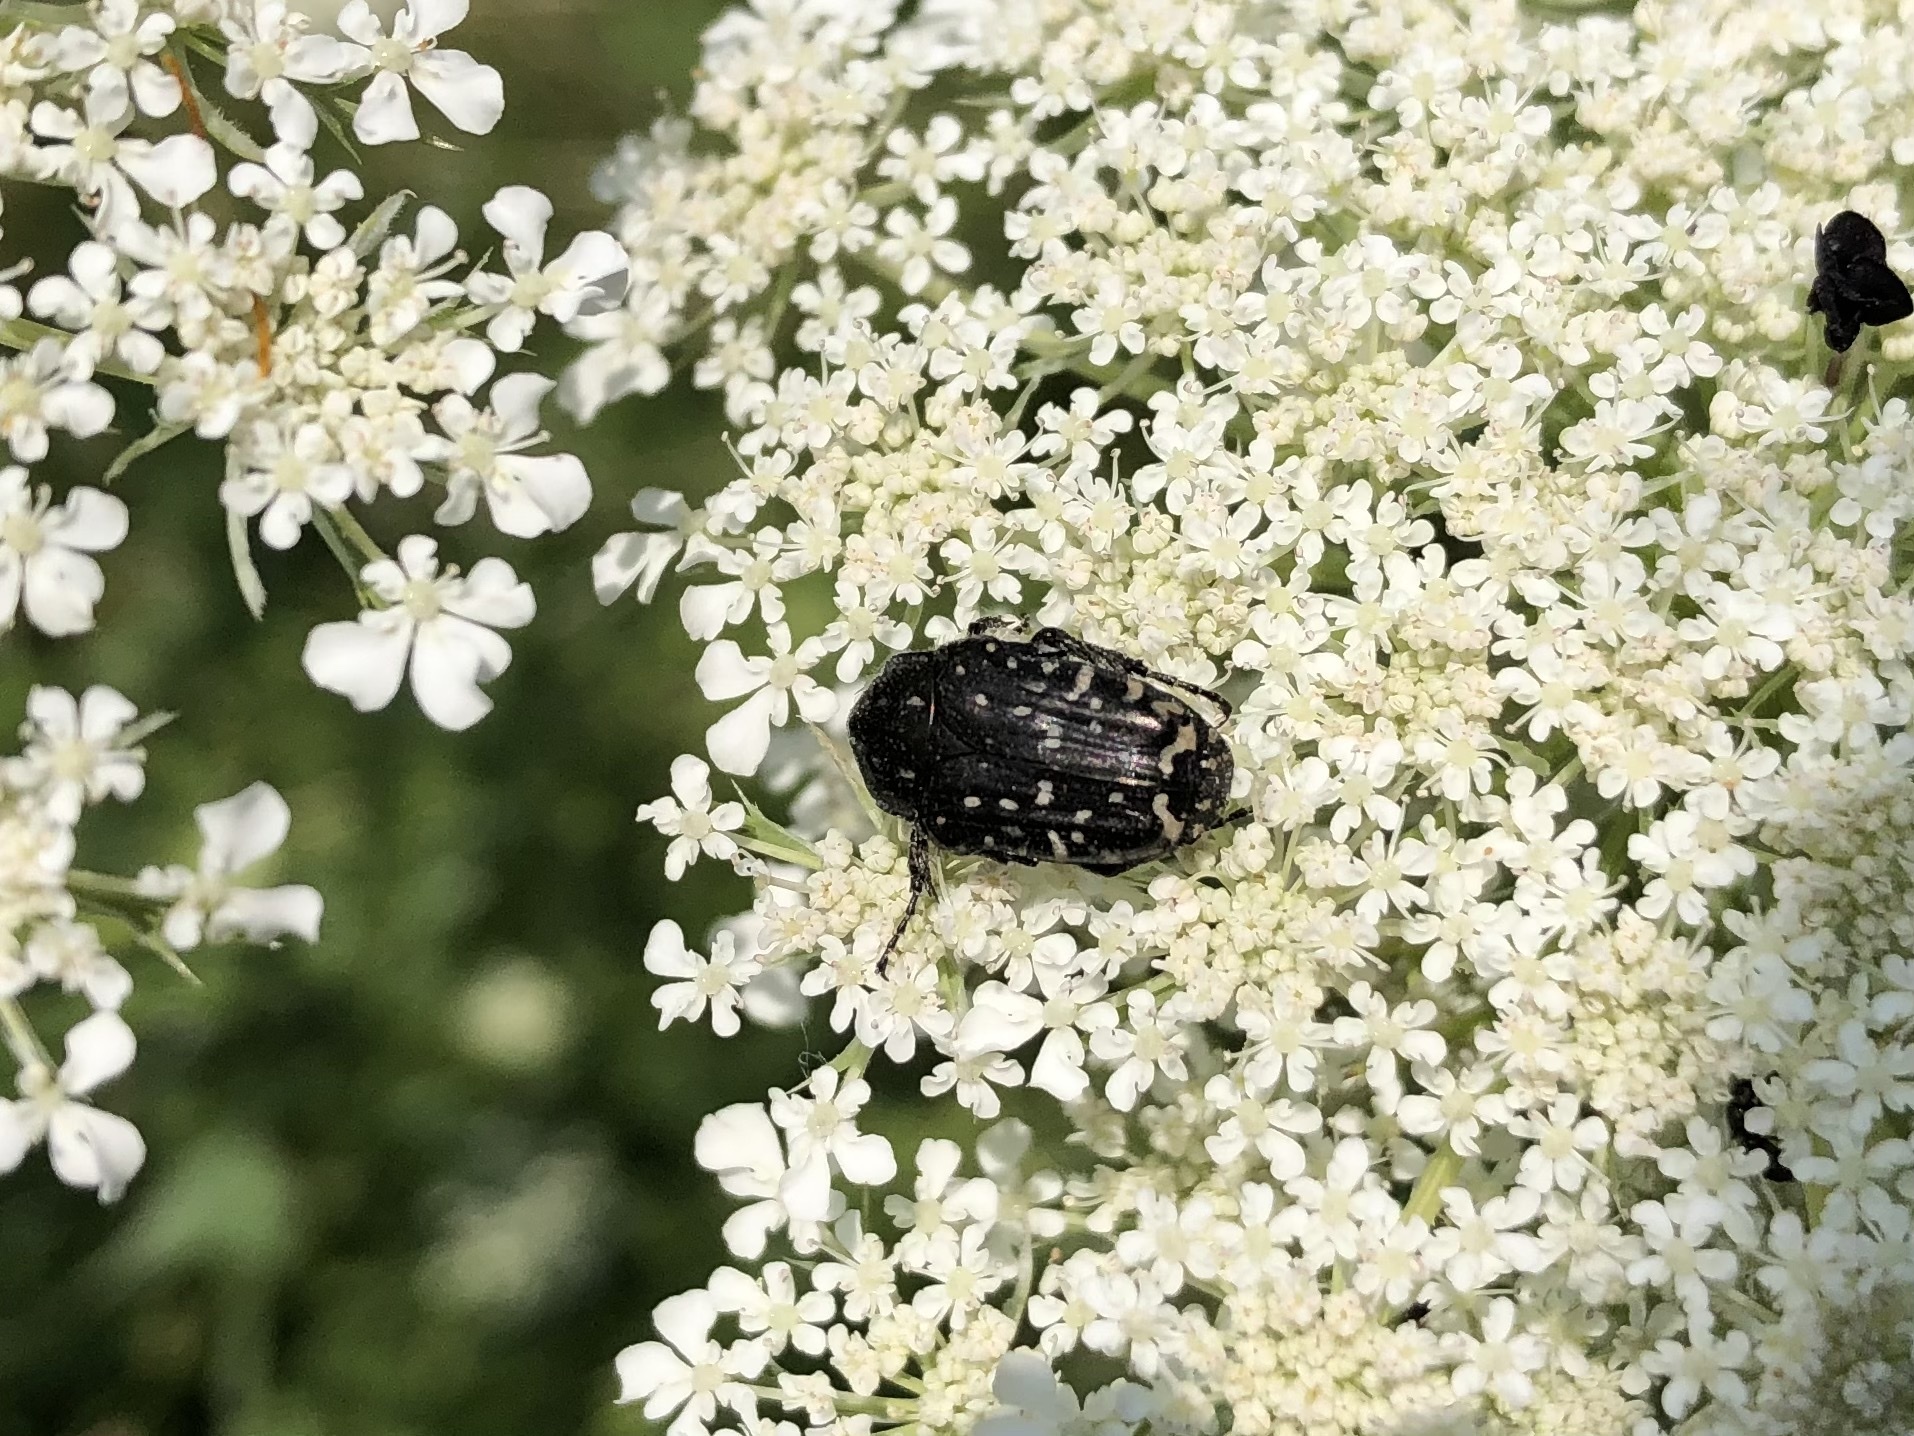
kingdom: Animalia
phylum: Arthropoda
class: Insecta
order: Coleoptera
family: Scarabaeidae
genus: Oxythyrea
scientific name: Oxythyrea funesta
